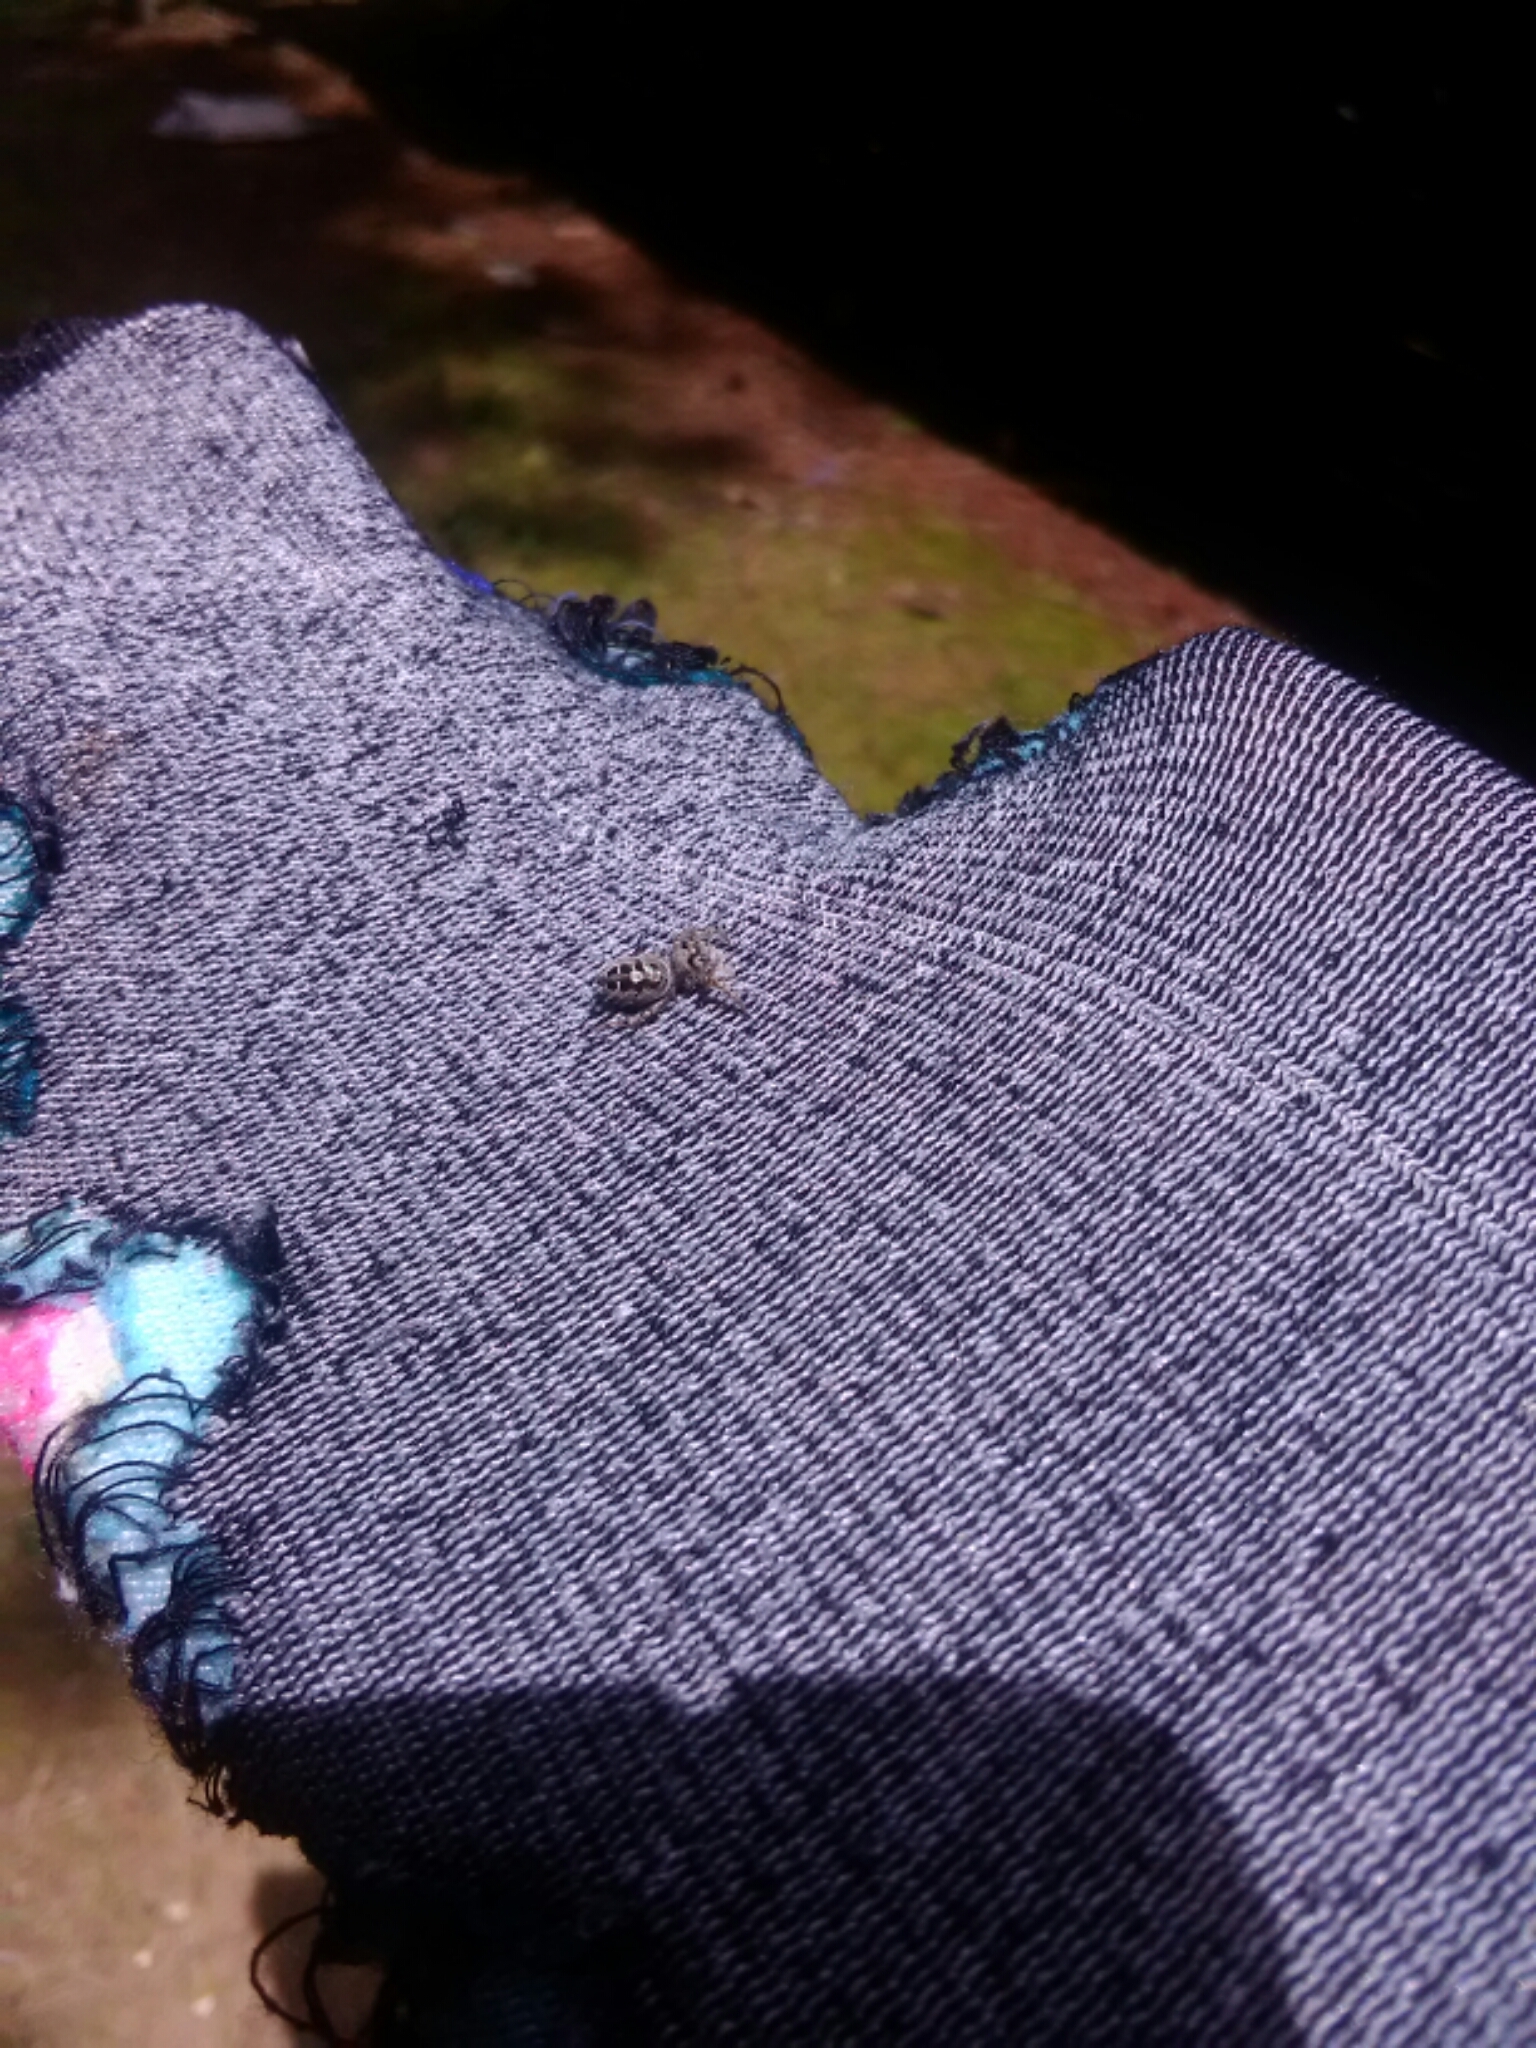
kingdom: Animalia
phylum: Arthropoda
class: Arachnida
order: Araneae
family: Salticidae
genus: Phidippus
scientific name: Phidippus putnami
